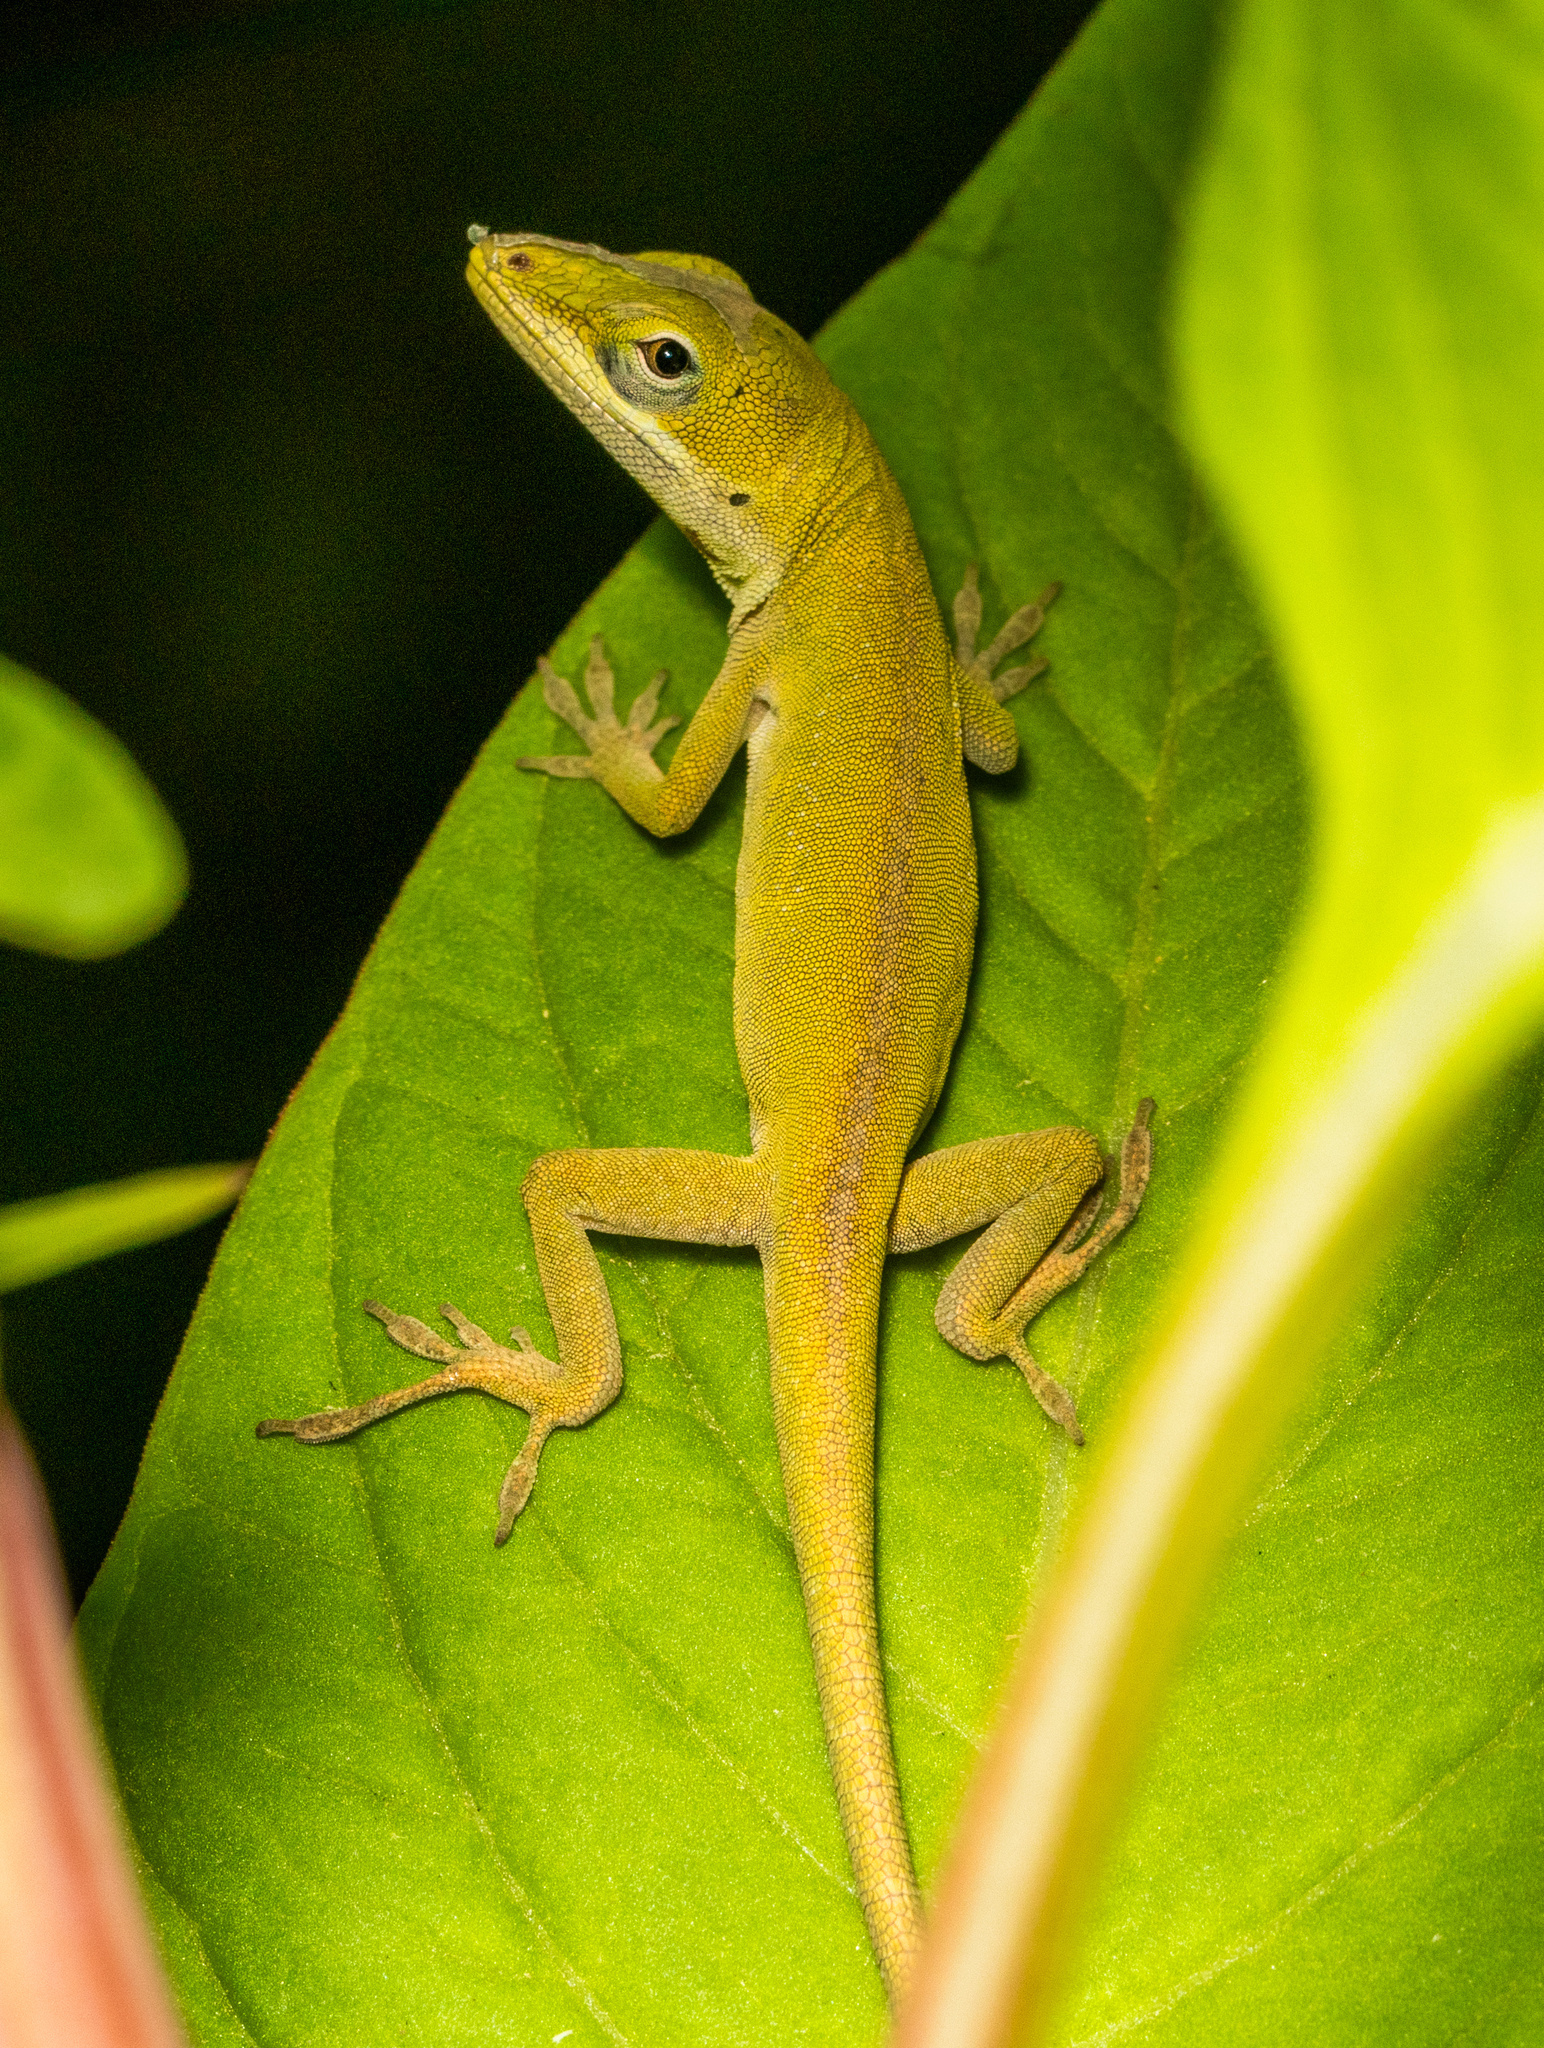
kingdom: Animalia
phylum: Chordata
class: Squamata
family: Dactyloidae
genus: Anolis
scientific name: Anolis carolinensis
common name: Green anole
